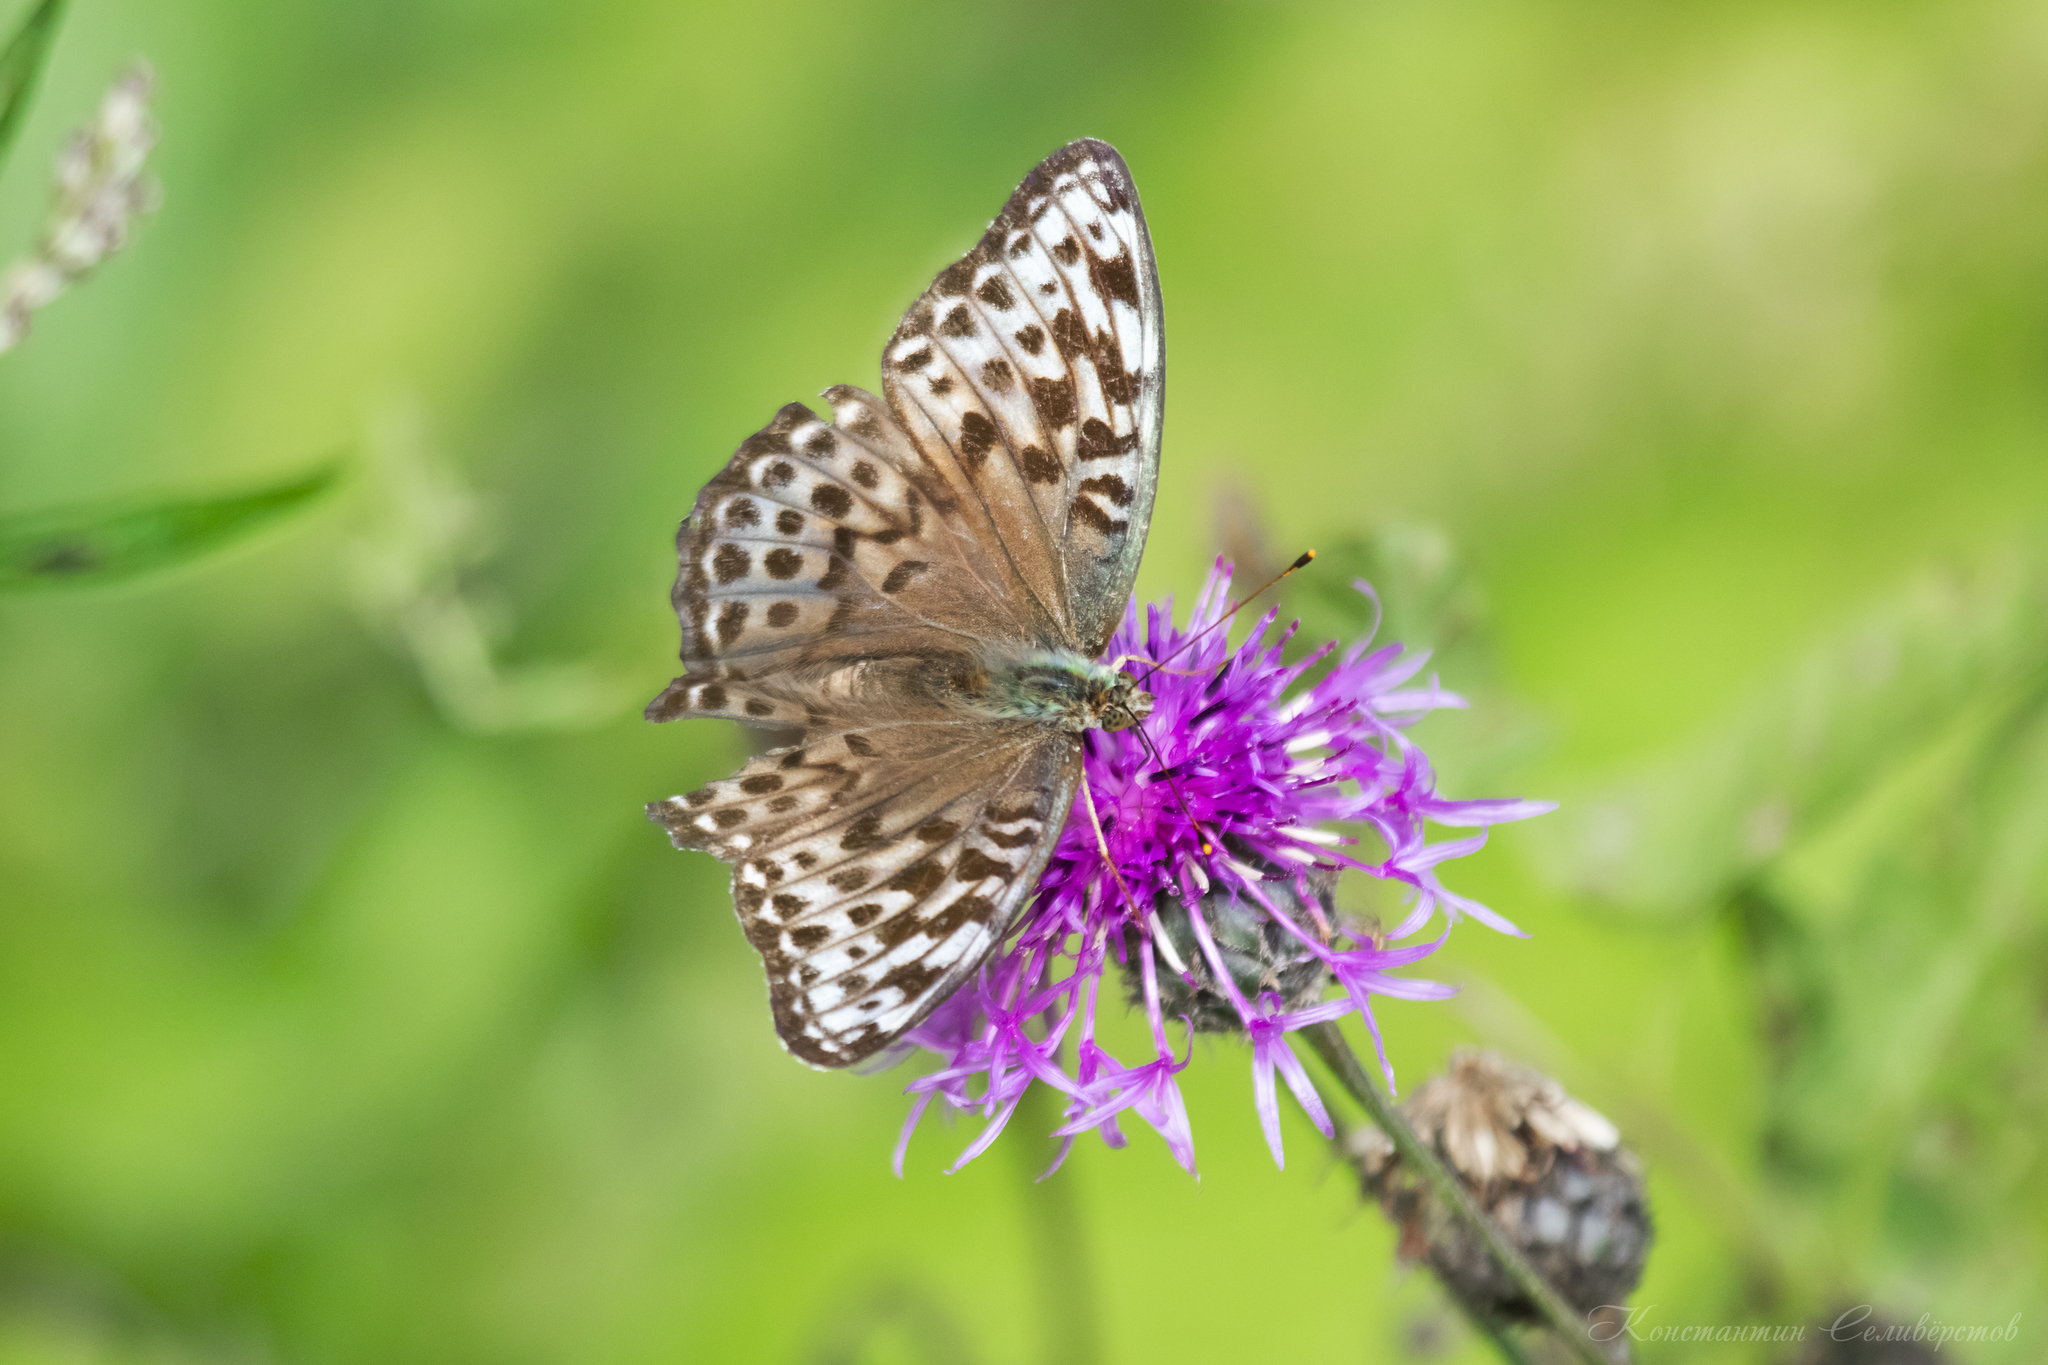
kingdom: Animalia
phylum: Arthropoda
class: Insecta
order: Lepidoptera
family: Nymphalidae
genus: Argynnis
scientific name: Argynnis paphia
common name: Silver-washed fritillary
